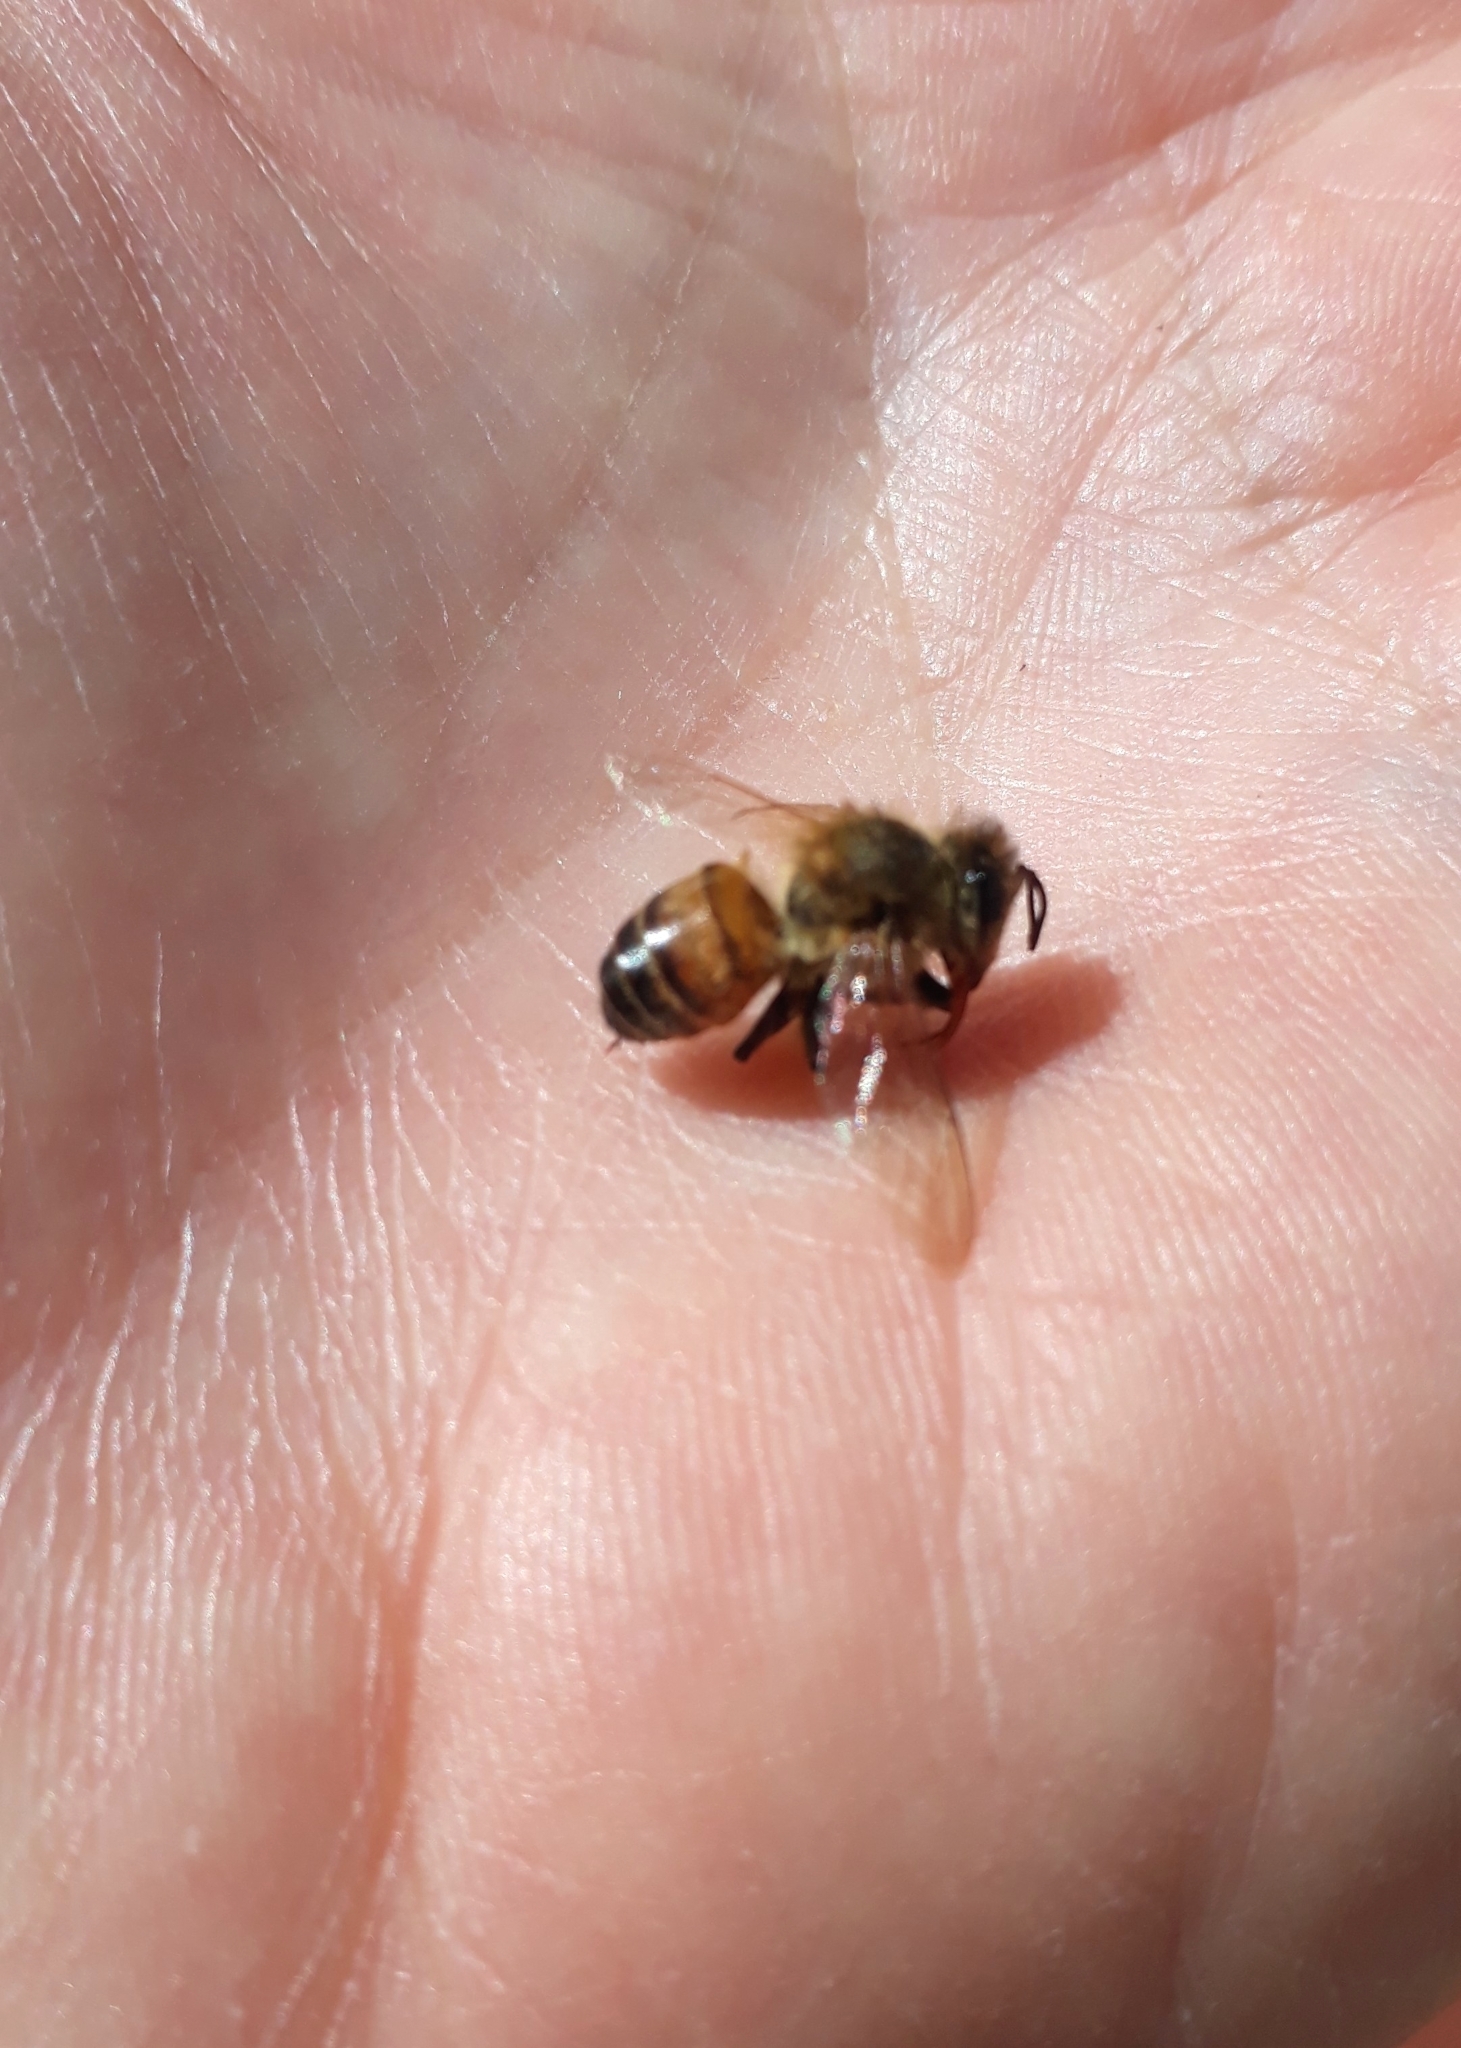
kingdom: Animalia
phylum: Arthropoda
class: Insecta
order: Hymenoptera
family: Apidae
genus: Apis
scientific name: Apis mellifera
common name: Honey bee
